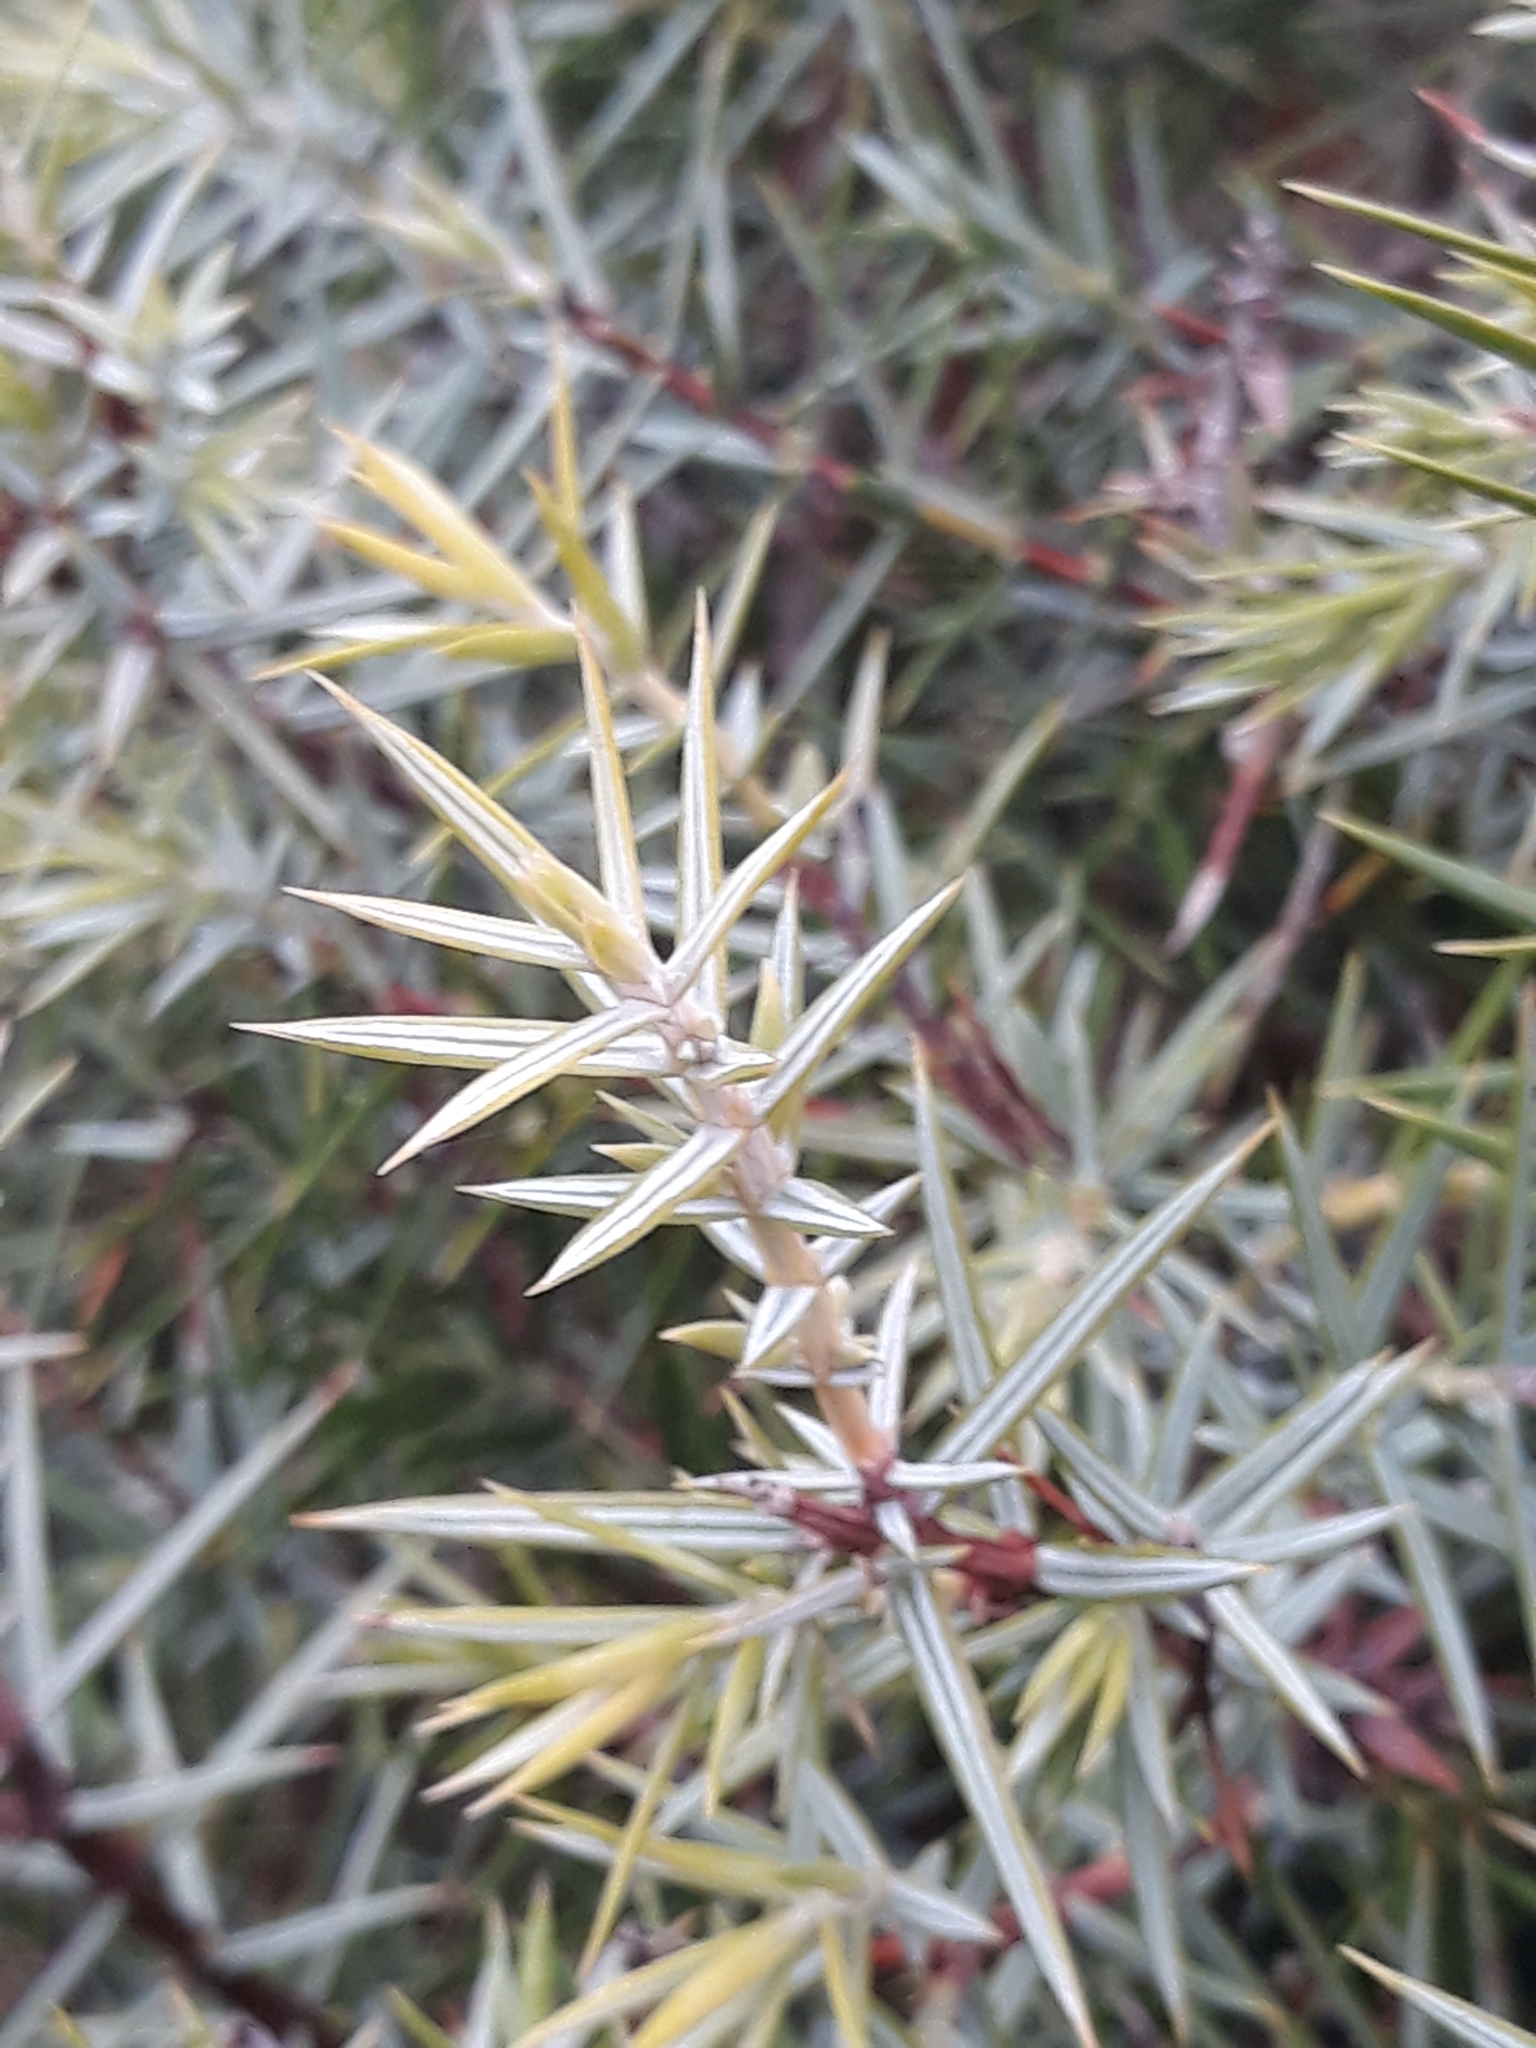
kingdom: Plantae
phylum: Tracheophyta
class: Pinopsida
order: Pinales
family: Cupressaceae
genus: Juniperus
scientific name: Juniperus oxycedrus
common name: Prickly juniper
